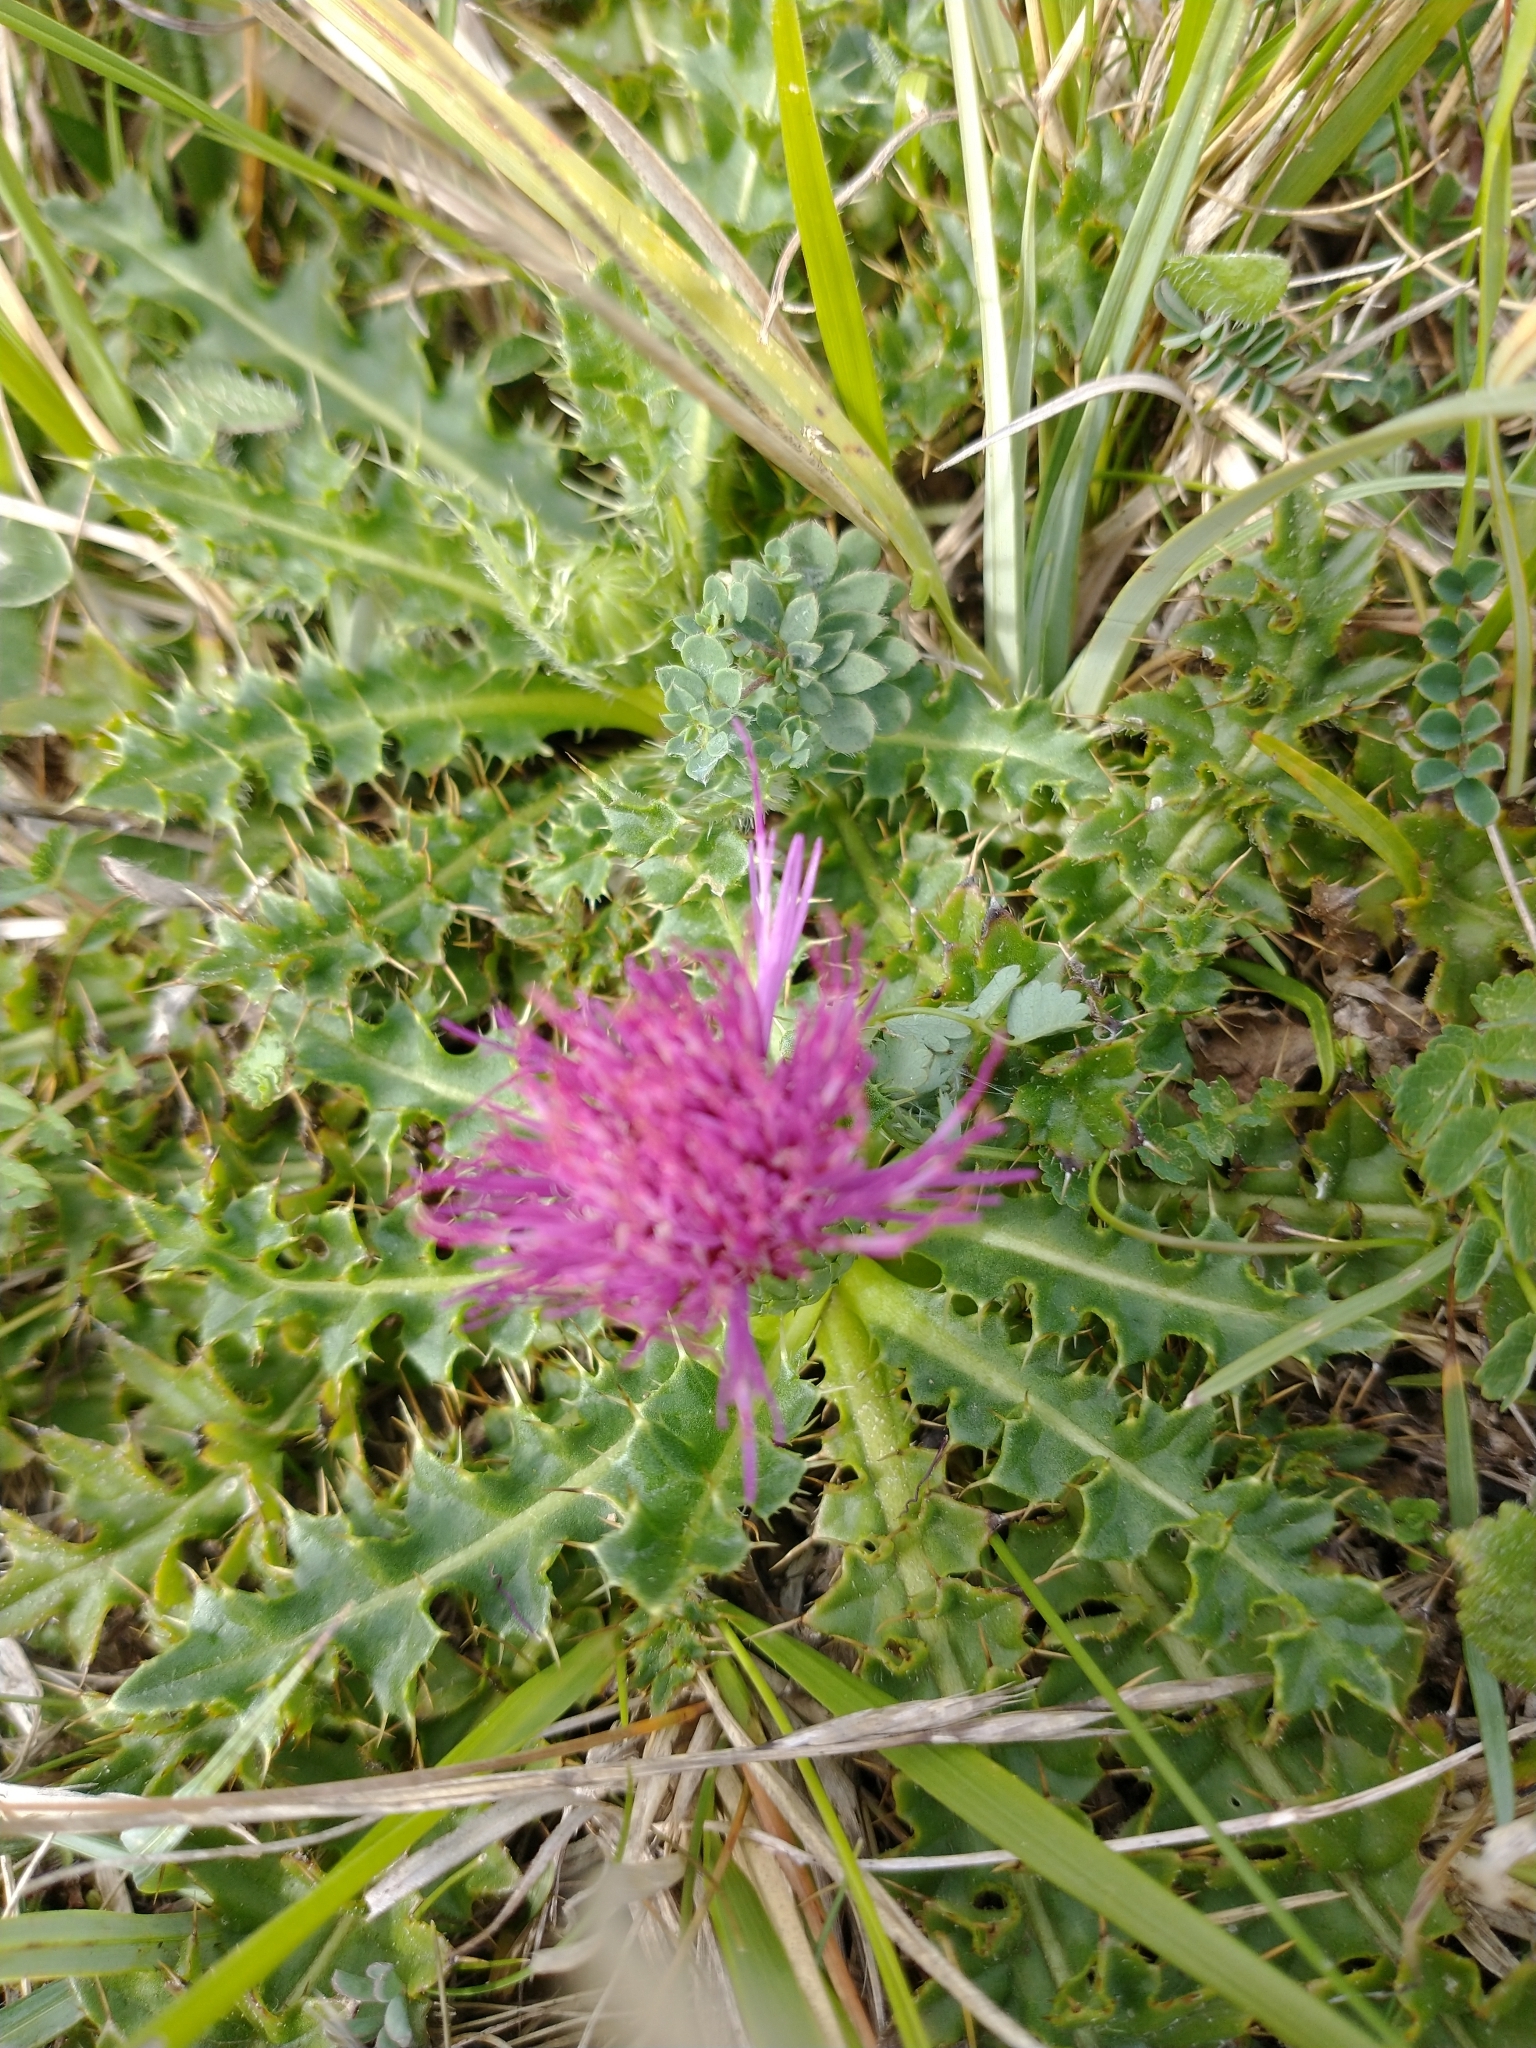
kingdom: Plantae
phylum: Tracheophyta
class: Magnoliopsida
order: Asterales
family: Asteraceae
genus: Cirsium
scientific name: Cirsium acaulon
